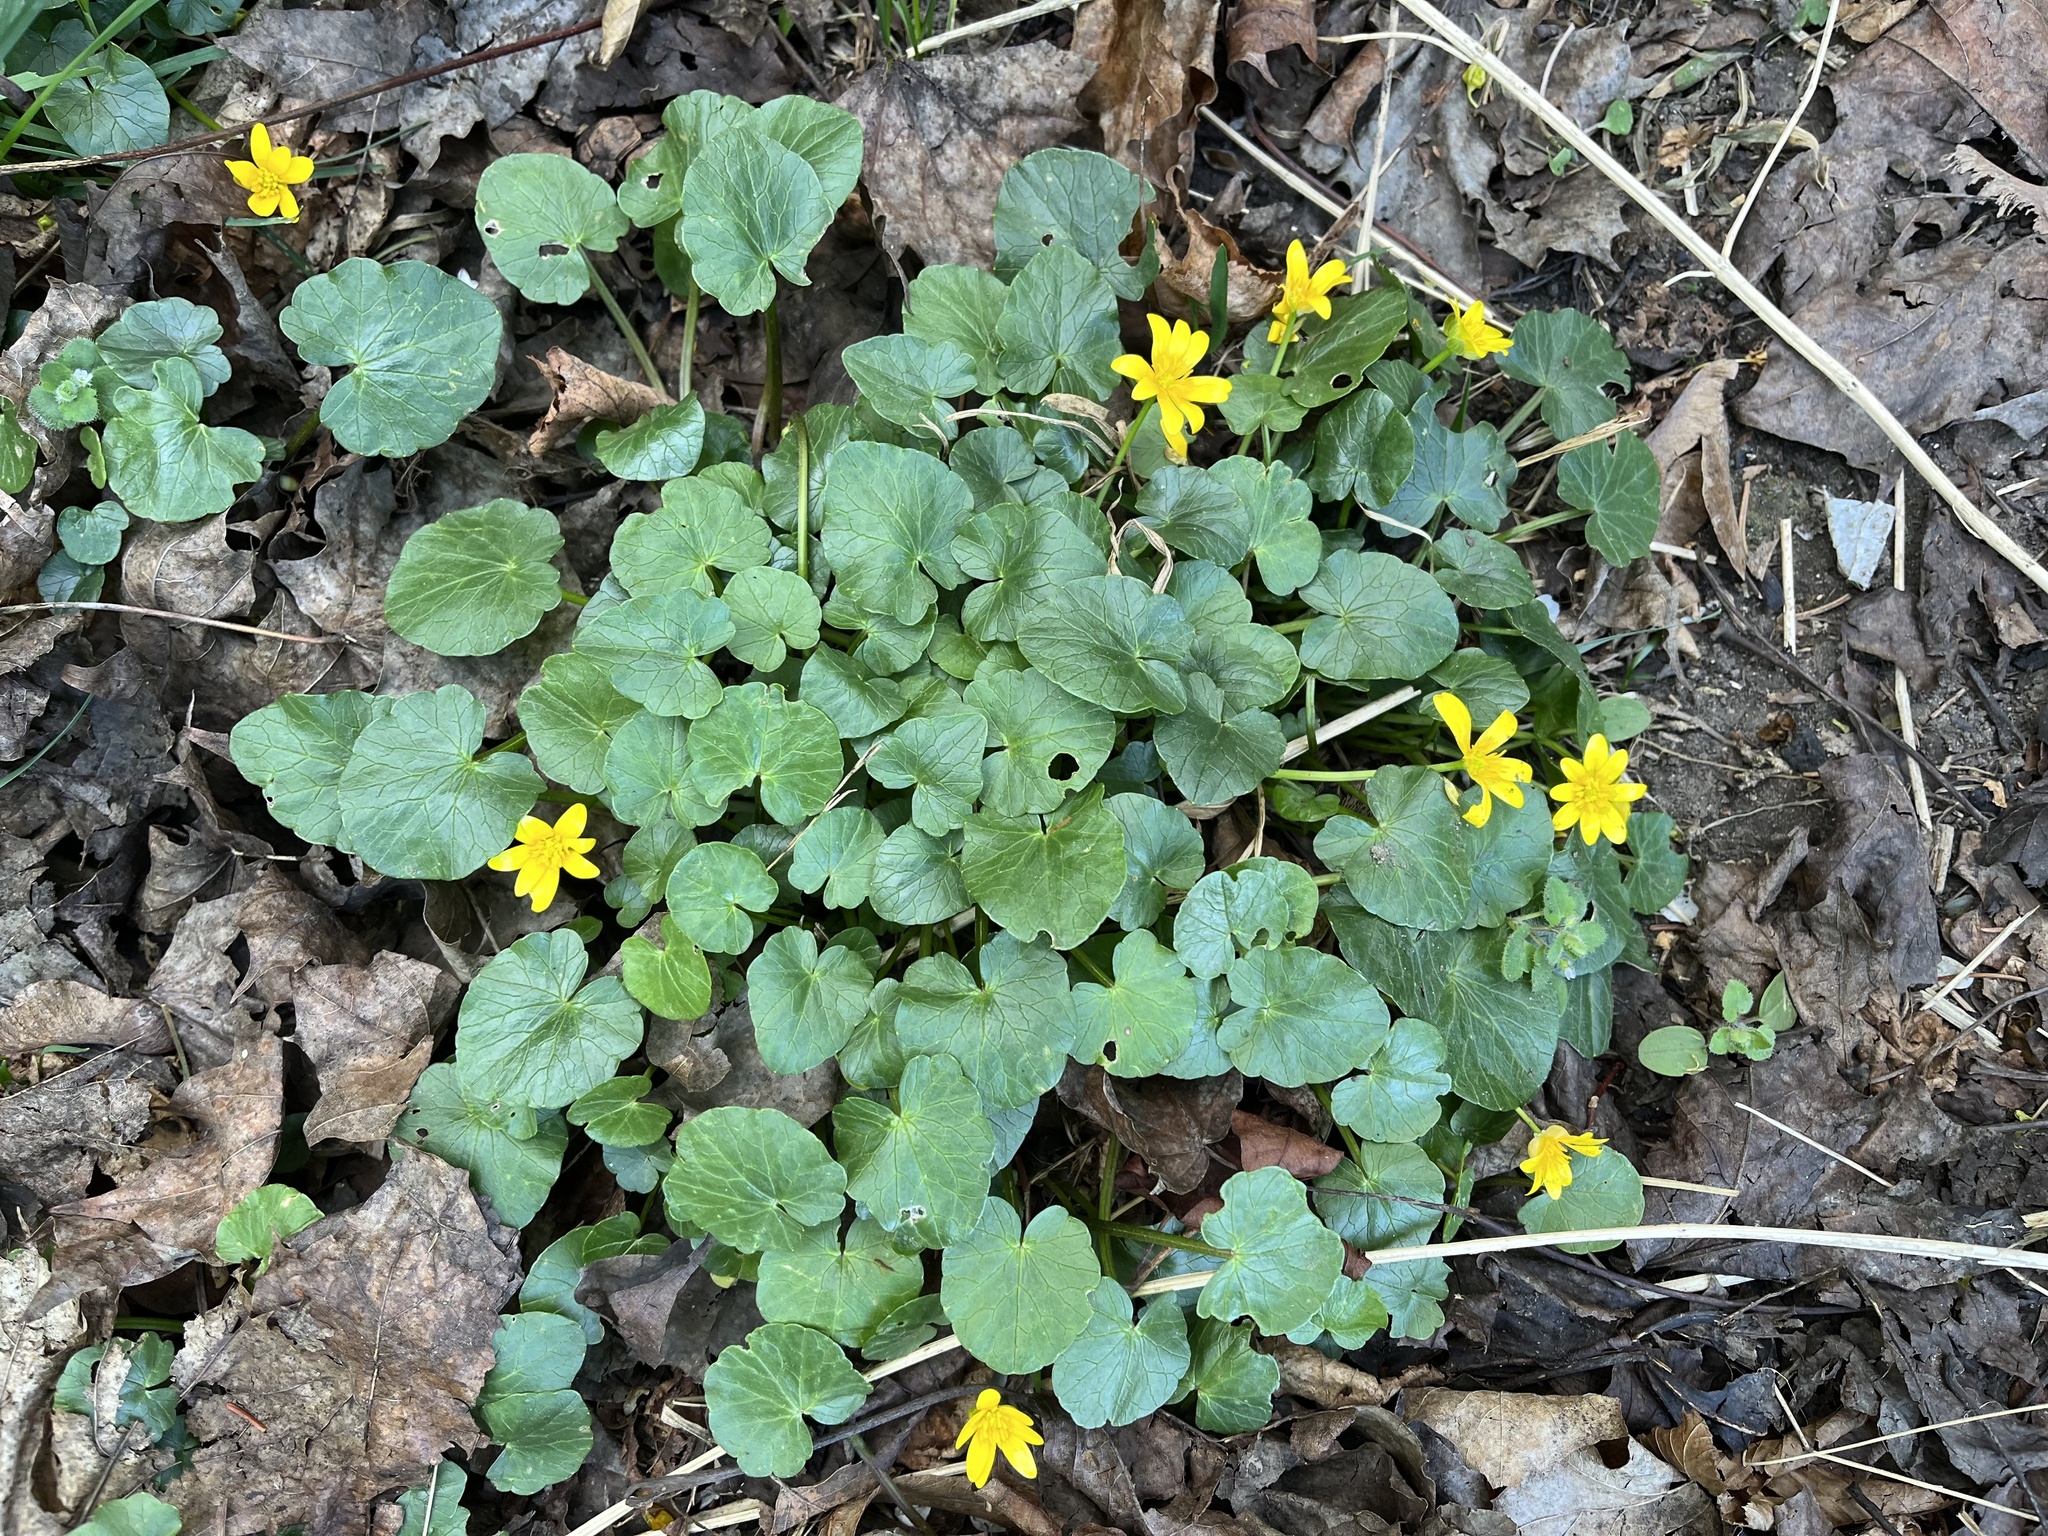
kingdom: Plantae
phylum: Tracheophyta
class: Magnoliopsida
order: Ranunculales
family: Ranunculaceae
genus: Ficaria
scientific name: Ficaria verna
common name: Lesser celandine
